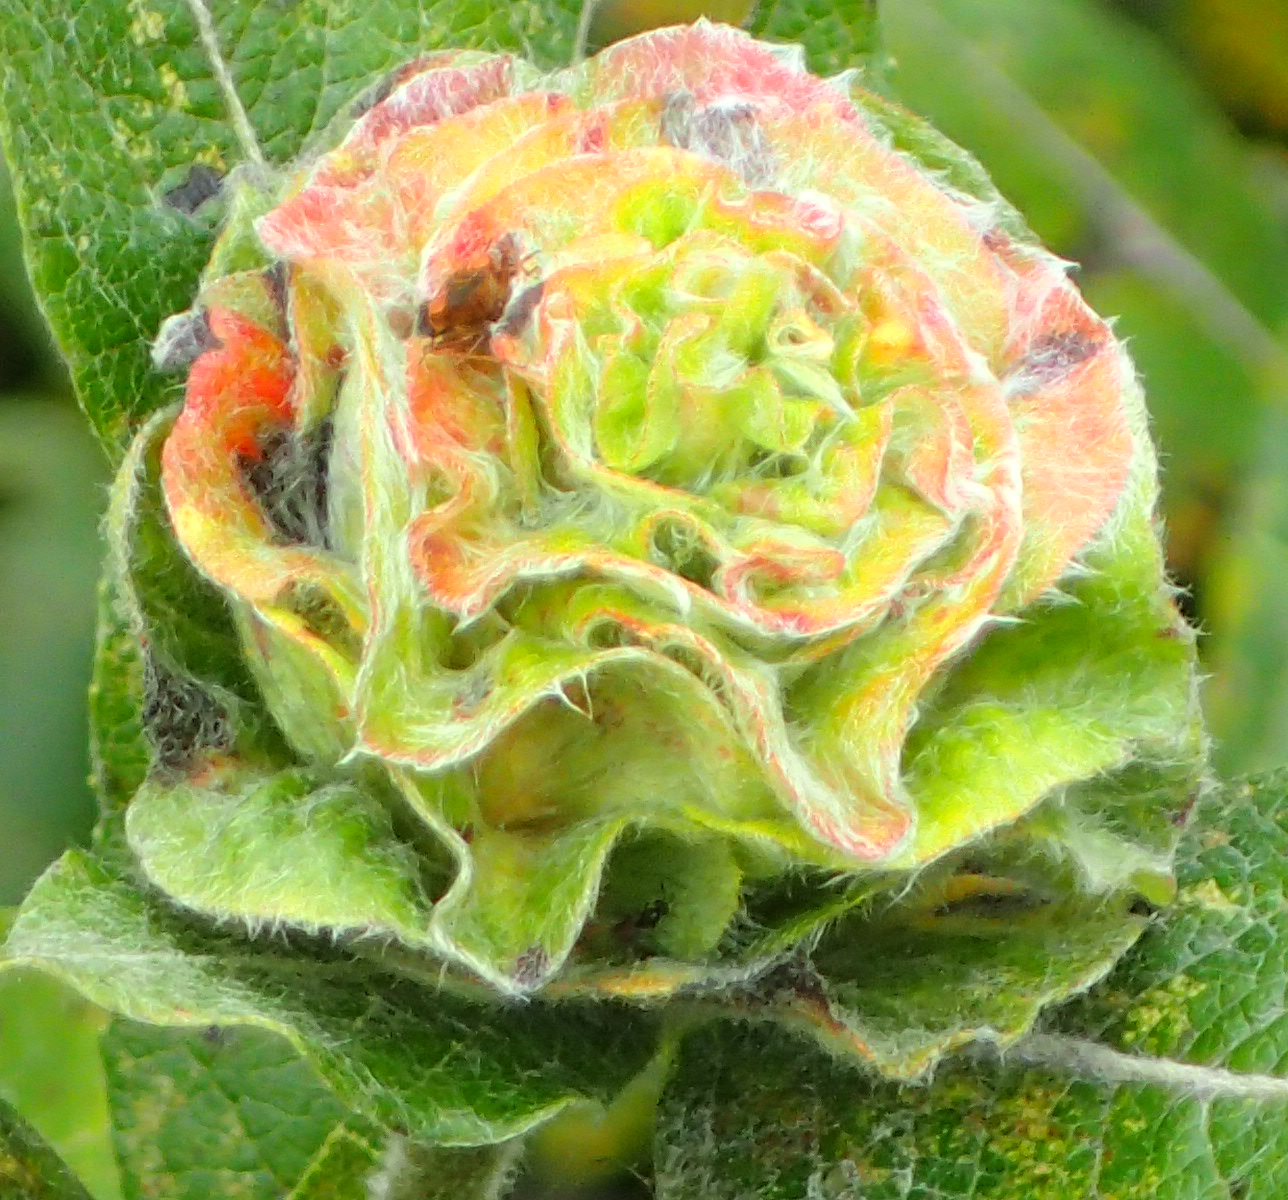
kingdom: Animalia
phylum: Arthropoda
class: Insecta
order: Diptera
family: Cecidomyiidae
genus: Rabdophaga
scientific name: Rabdophaga rosaria
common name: Willow rose gall midge
